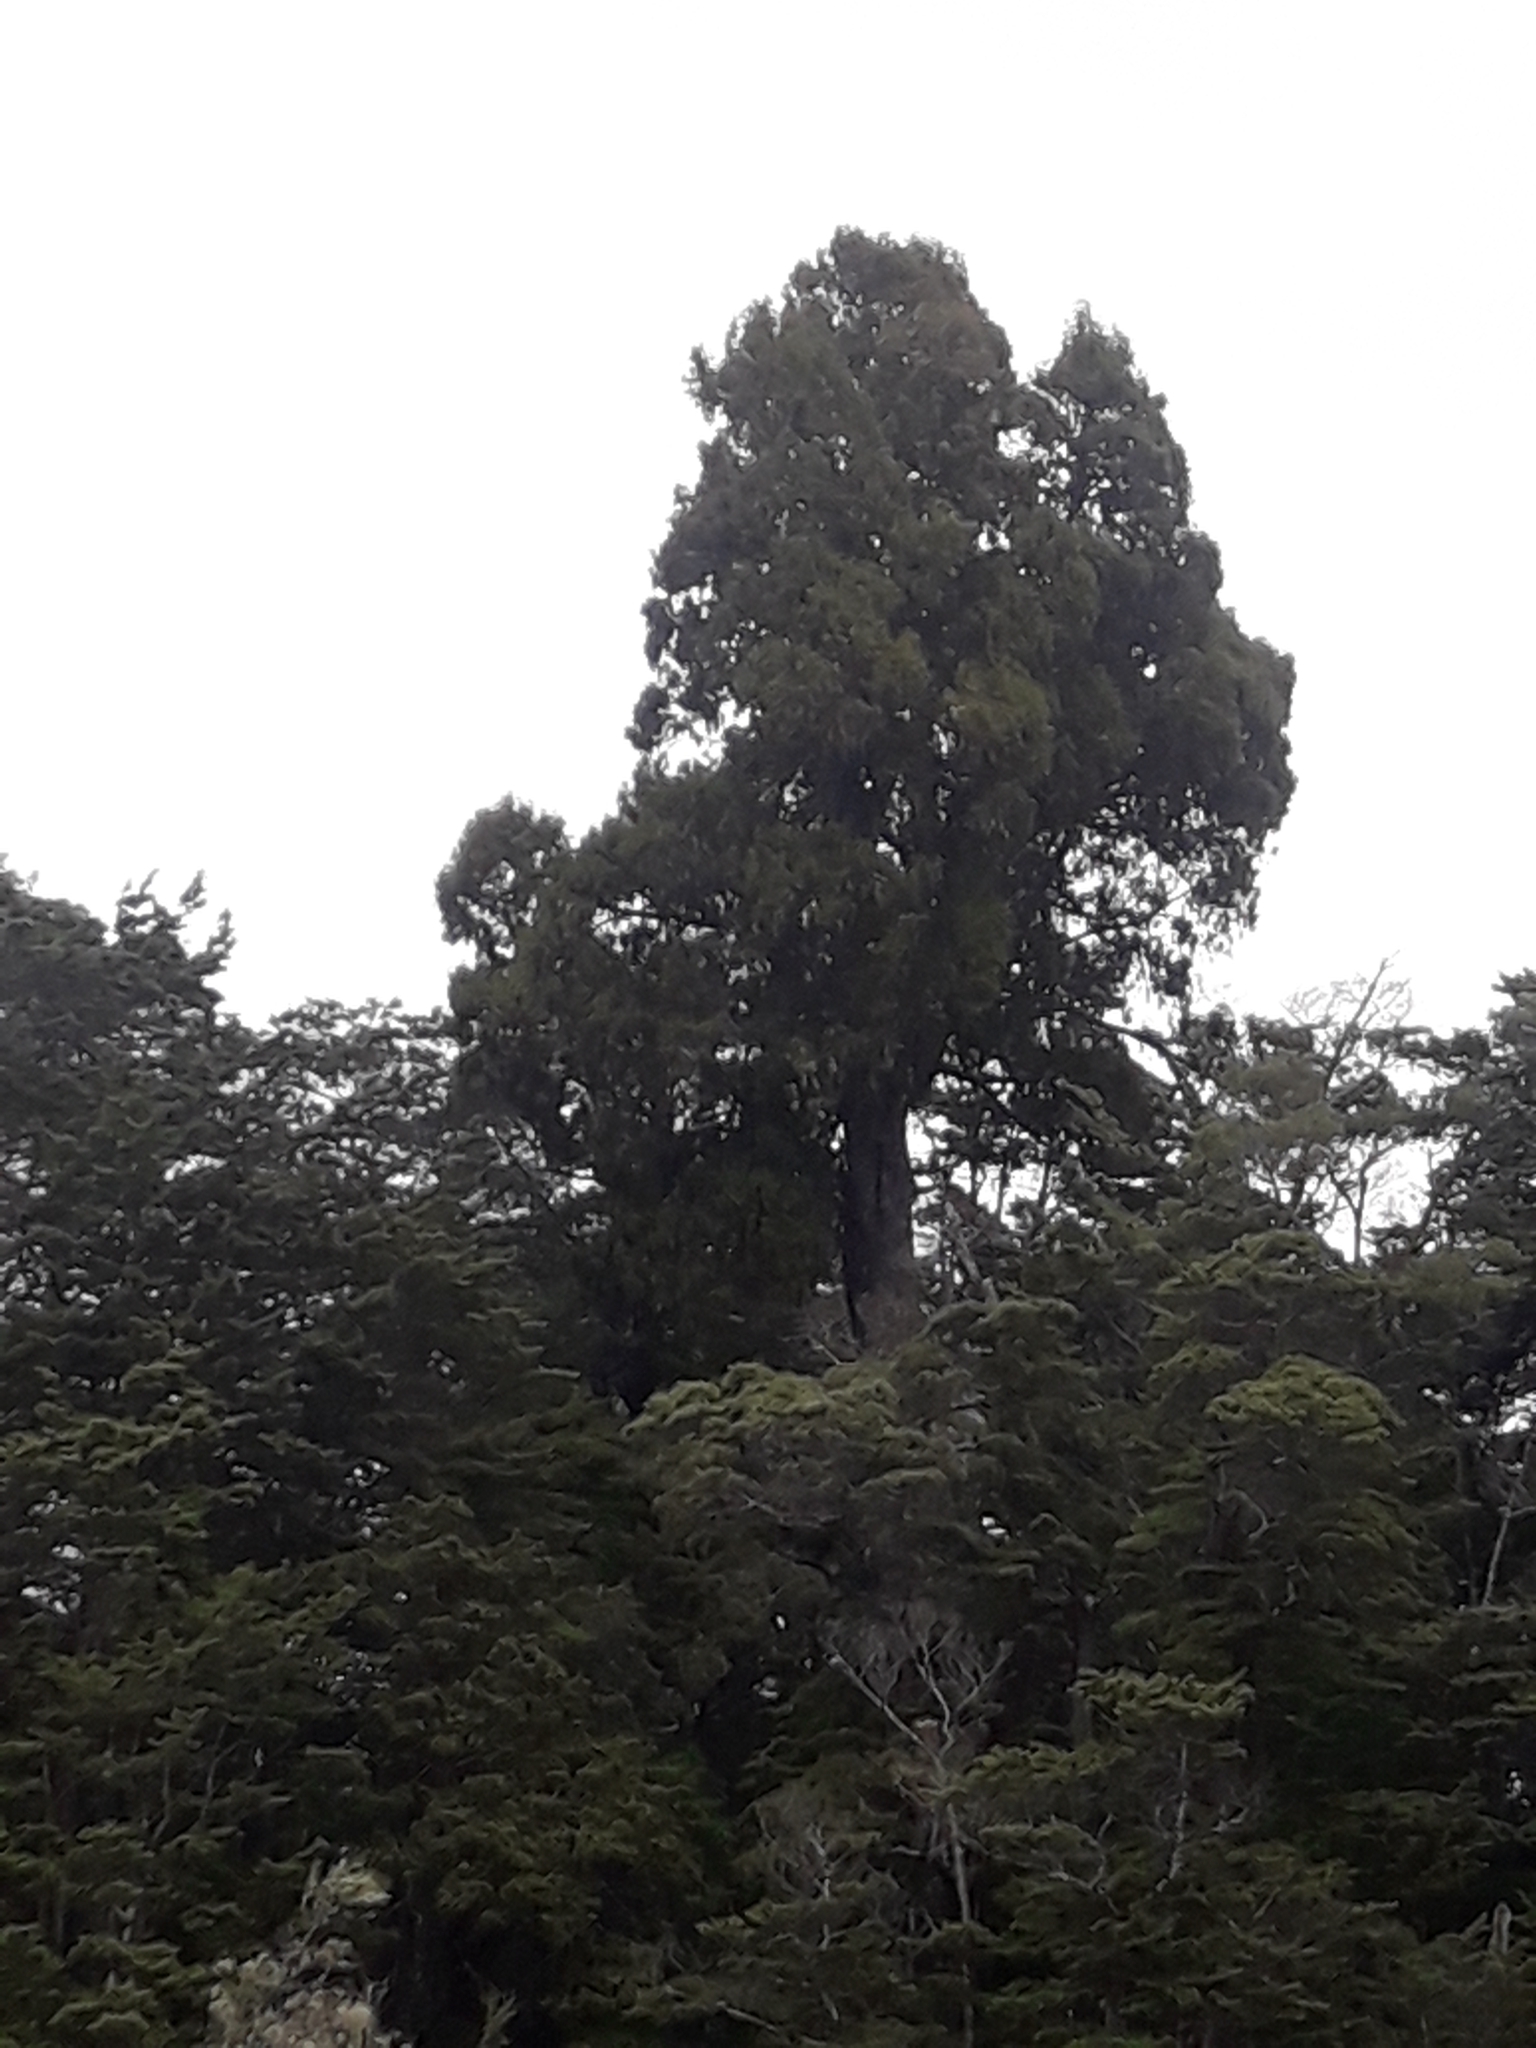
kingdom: Plantae
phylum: Tracheophyta
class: Pinopsida
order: Pinales
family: Podocarpaceae
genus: Dacrydium
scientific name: Dacrydium cupressinum
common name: Red pine
